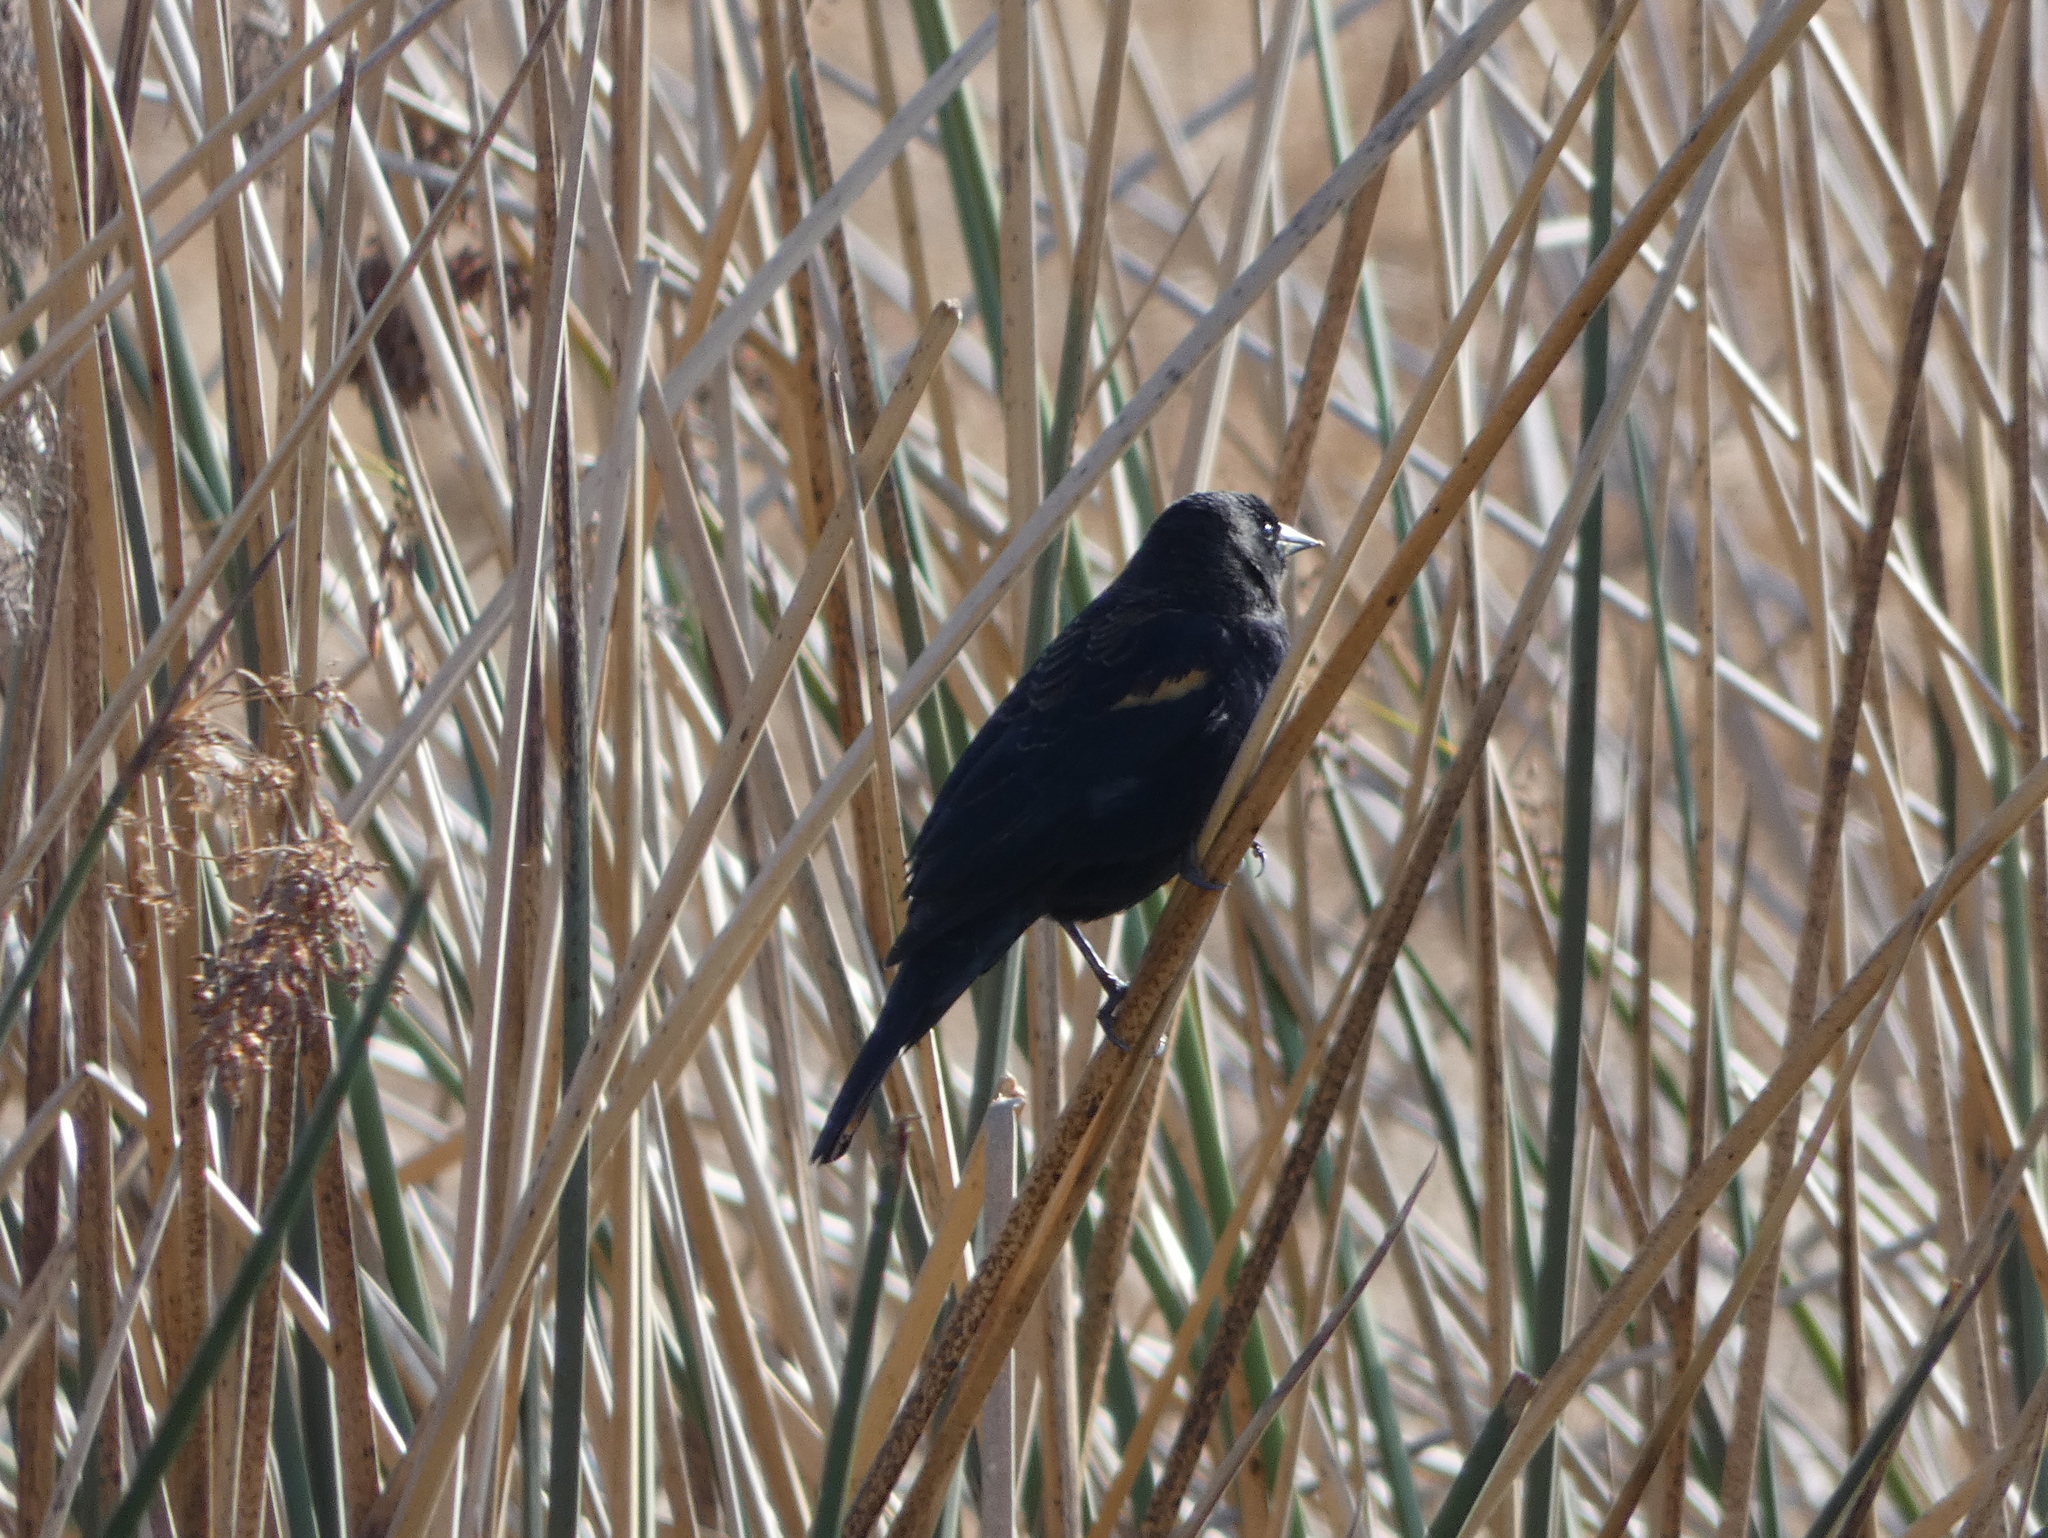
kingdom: Animalia
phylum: Chordata
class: Aves
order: Passeriformes
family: Icteridae
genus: Agelaius
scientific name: Agelaius phoeniceus
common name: Red-winged blackbird
